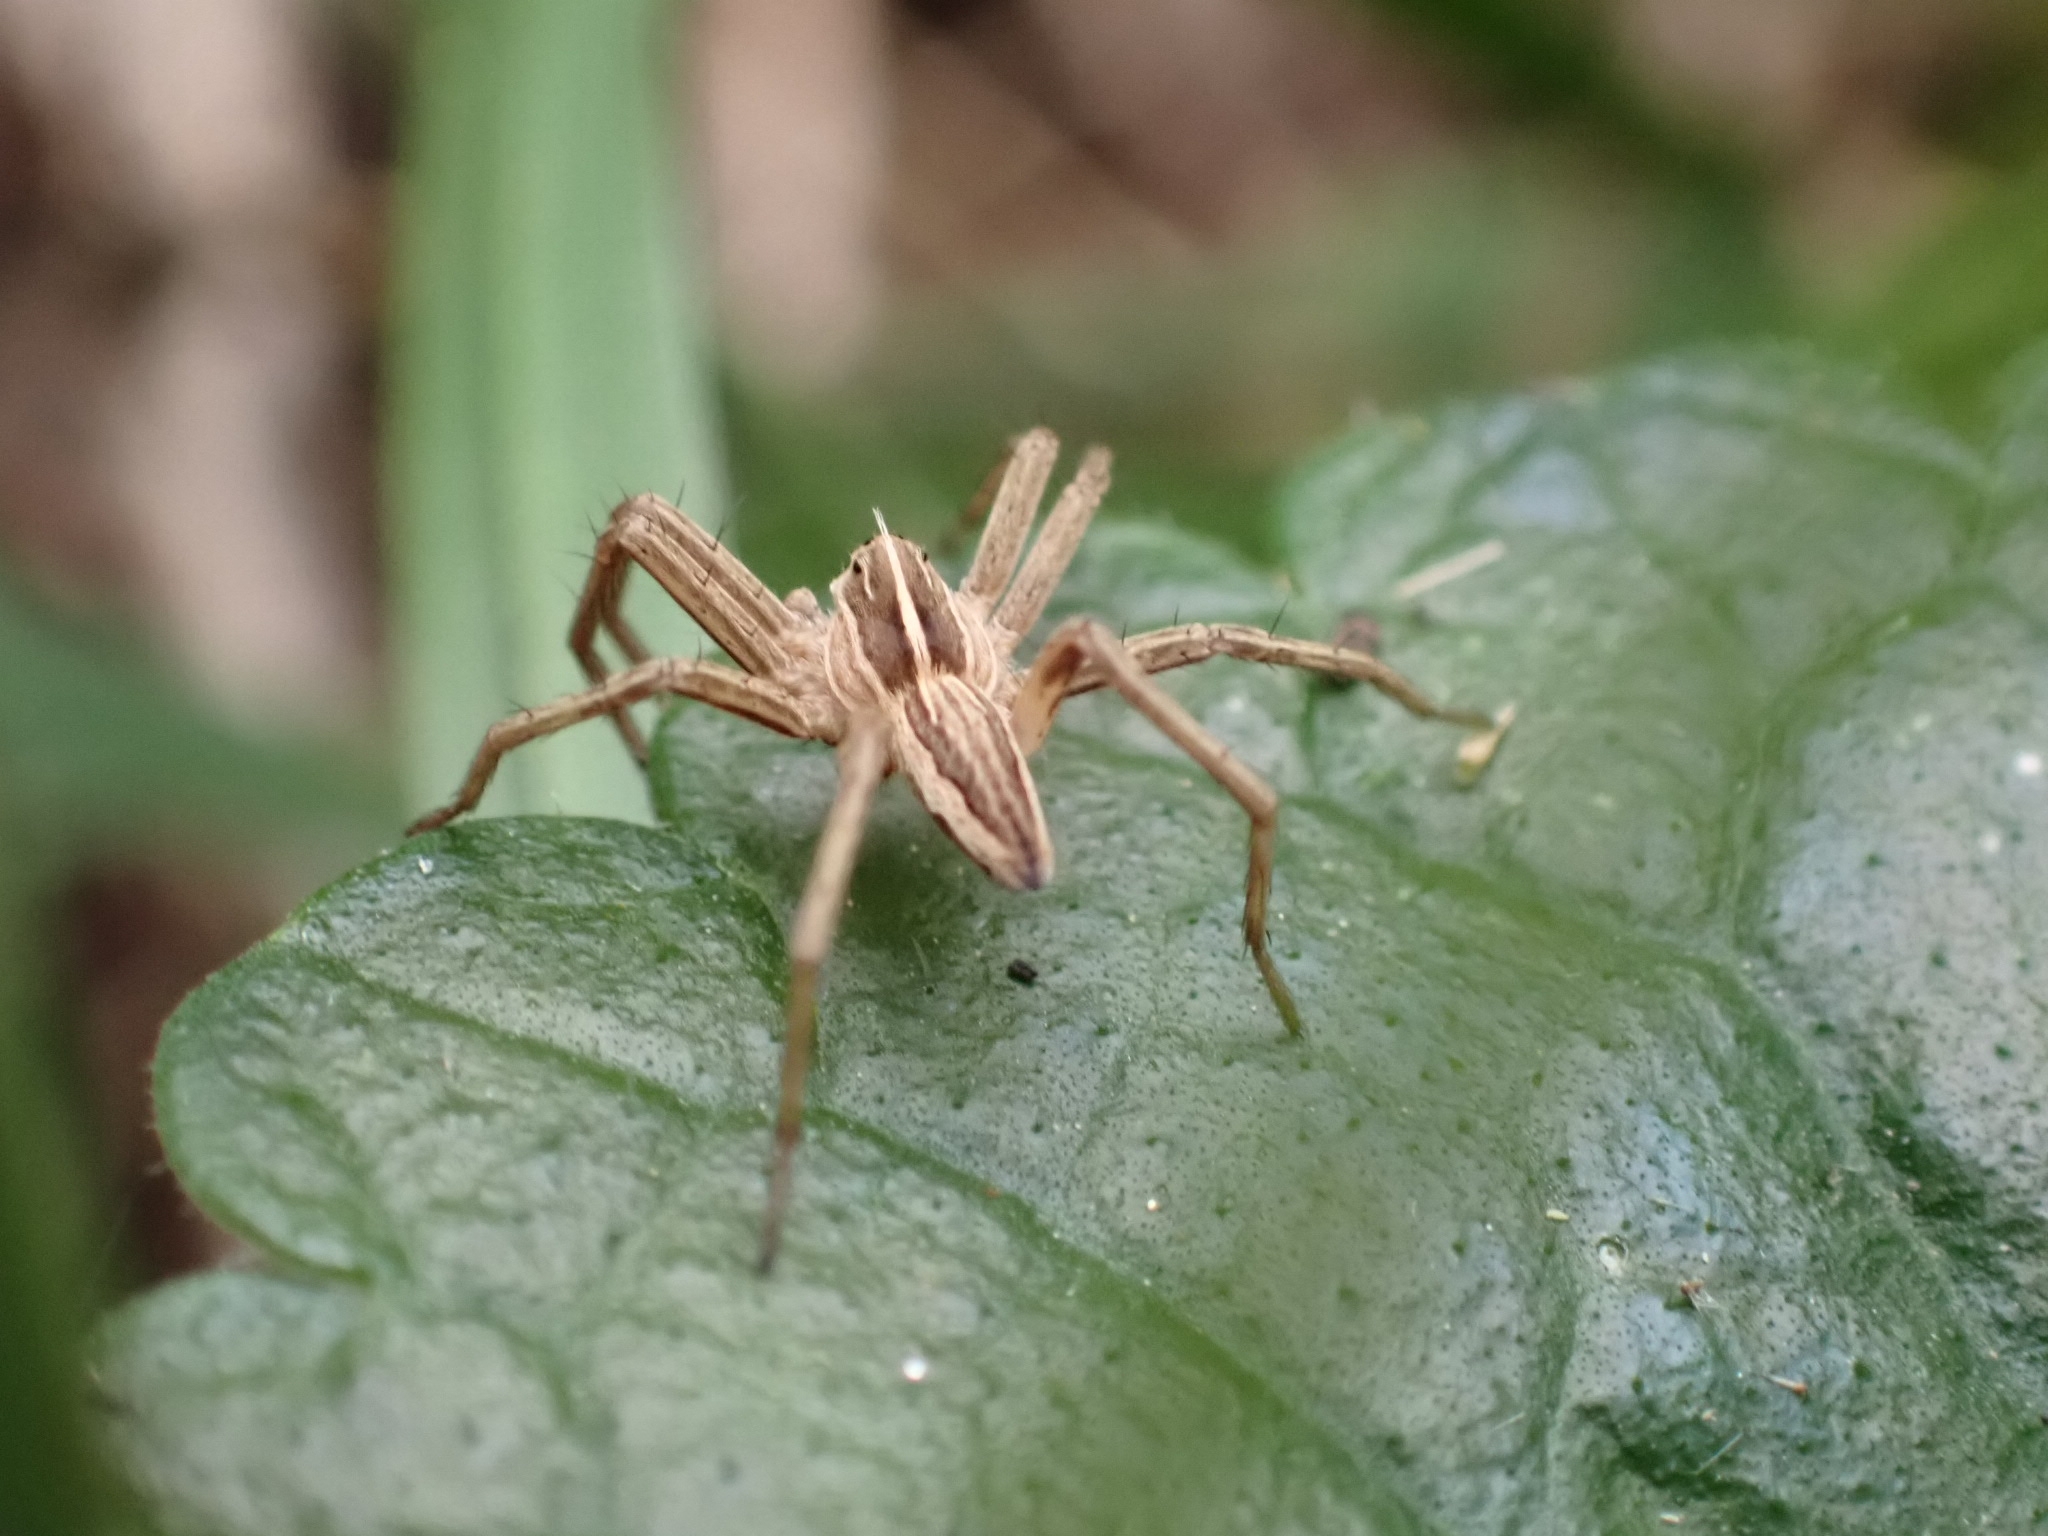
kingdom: Animalia
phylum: Arthropoda
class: Arachnida
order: Araneae
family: Pisauridae
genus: Pisaura
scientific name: Pisaura mirabilis
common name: Tent spider
